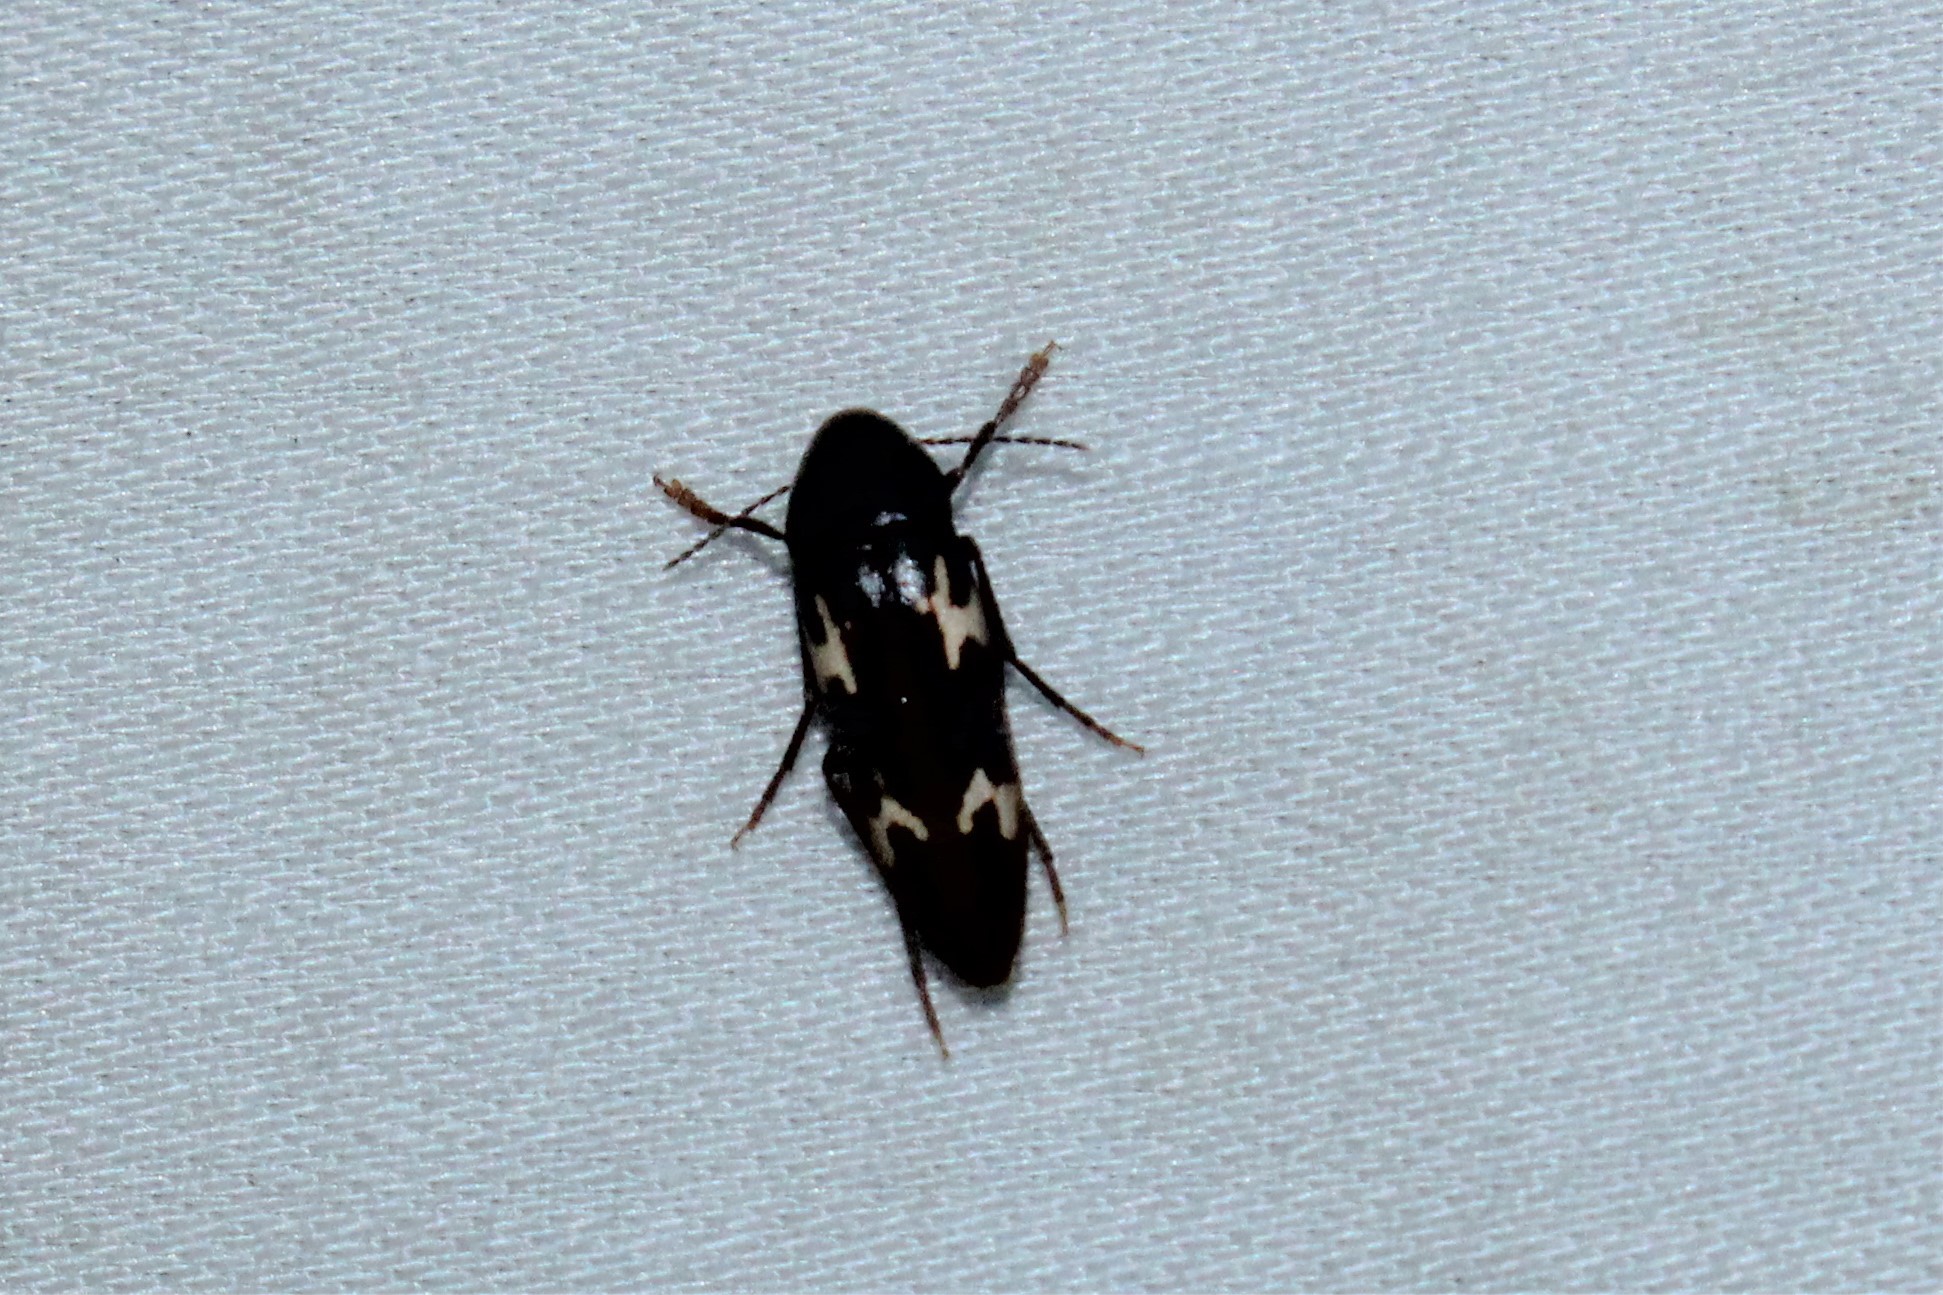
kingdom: Animalia
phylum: Arthropoda
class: Insecta
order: Coleoptera
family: Melandryidae
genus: Dircaea
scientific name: Dircaea liturata
